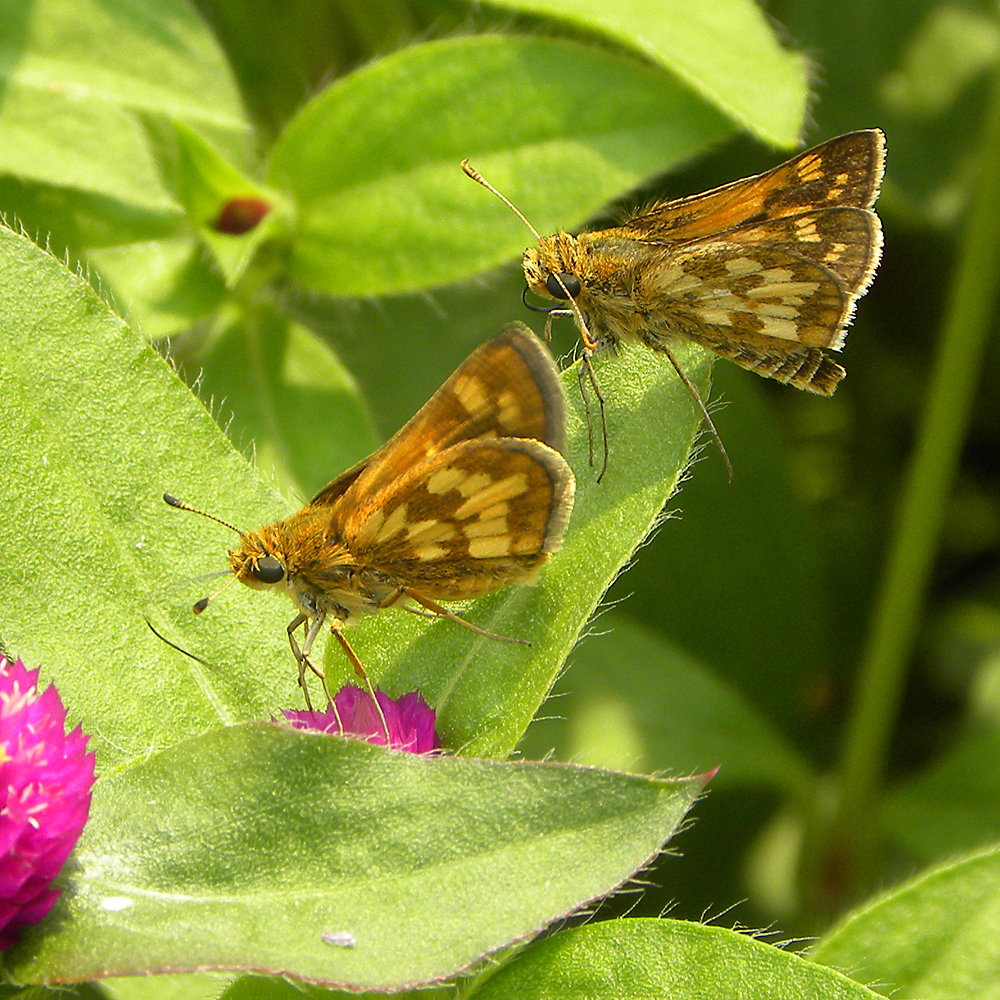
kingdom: Animalia
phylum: Arthropoda
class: Insecta
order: Lepidoptera
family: Hesperiidae
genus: Polites
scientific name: Polites coras
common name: Peck's skipper
